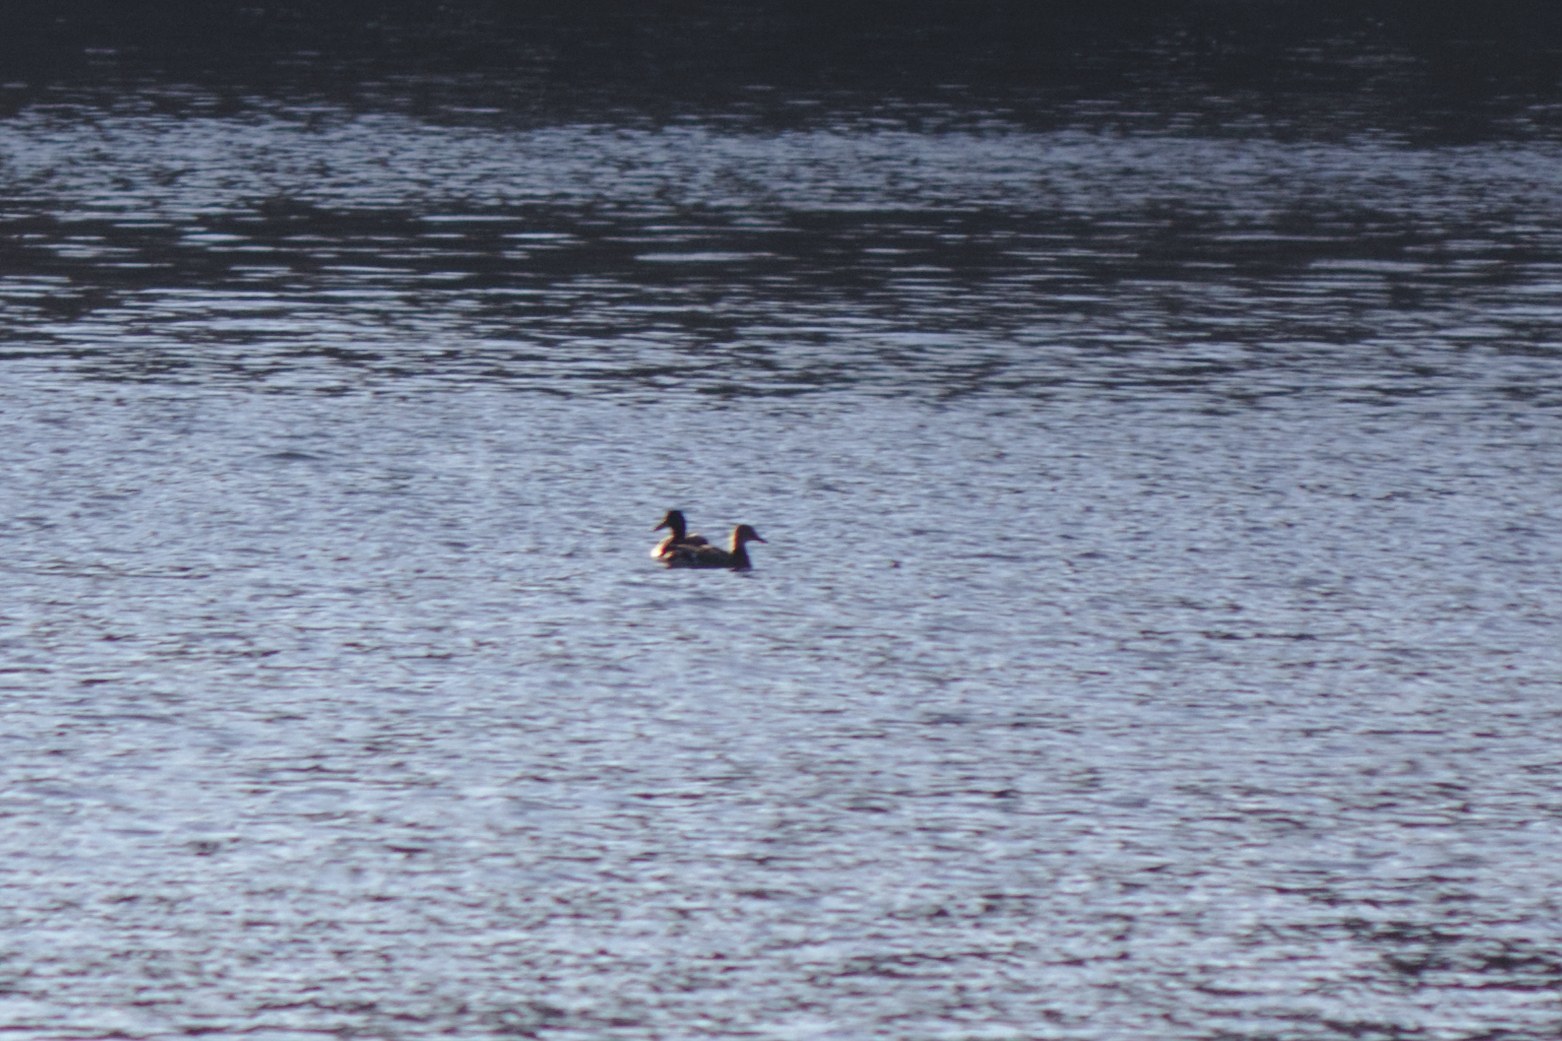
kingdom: Animalia
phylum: Chordata
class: Aves
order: Anseriformes
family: Anatidae
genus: Anas
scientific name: Anas platyrhynchos
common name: Mallard
